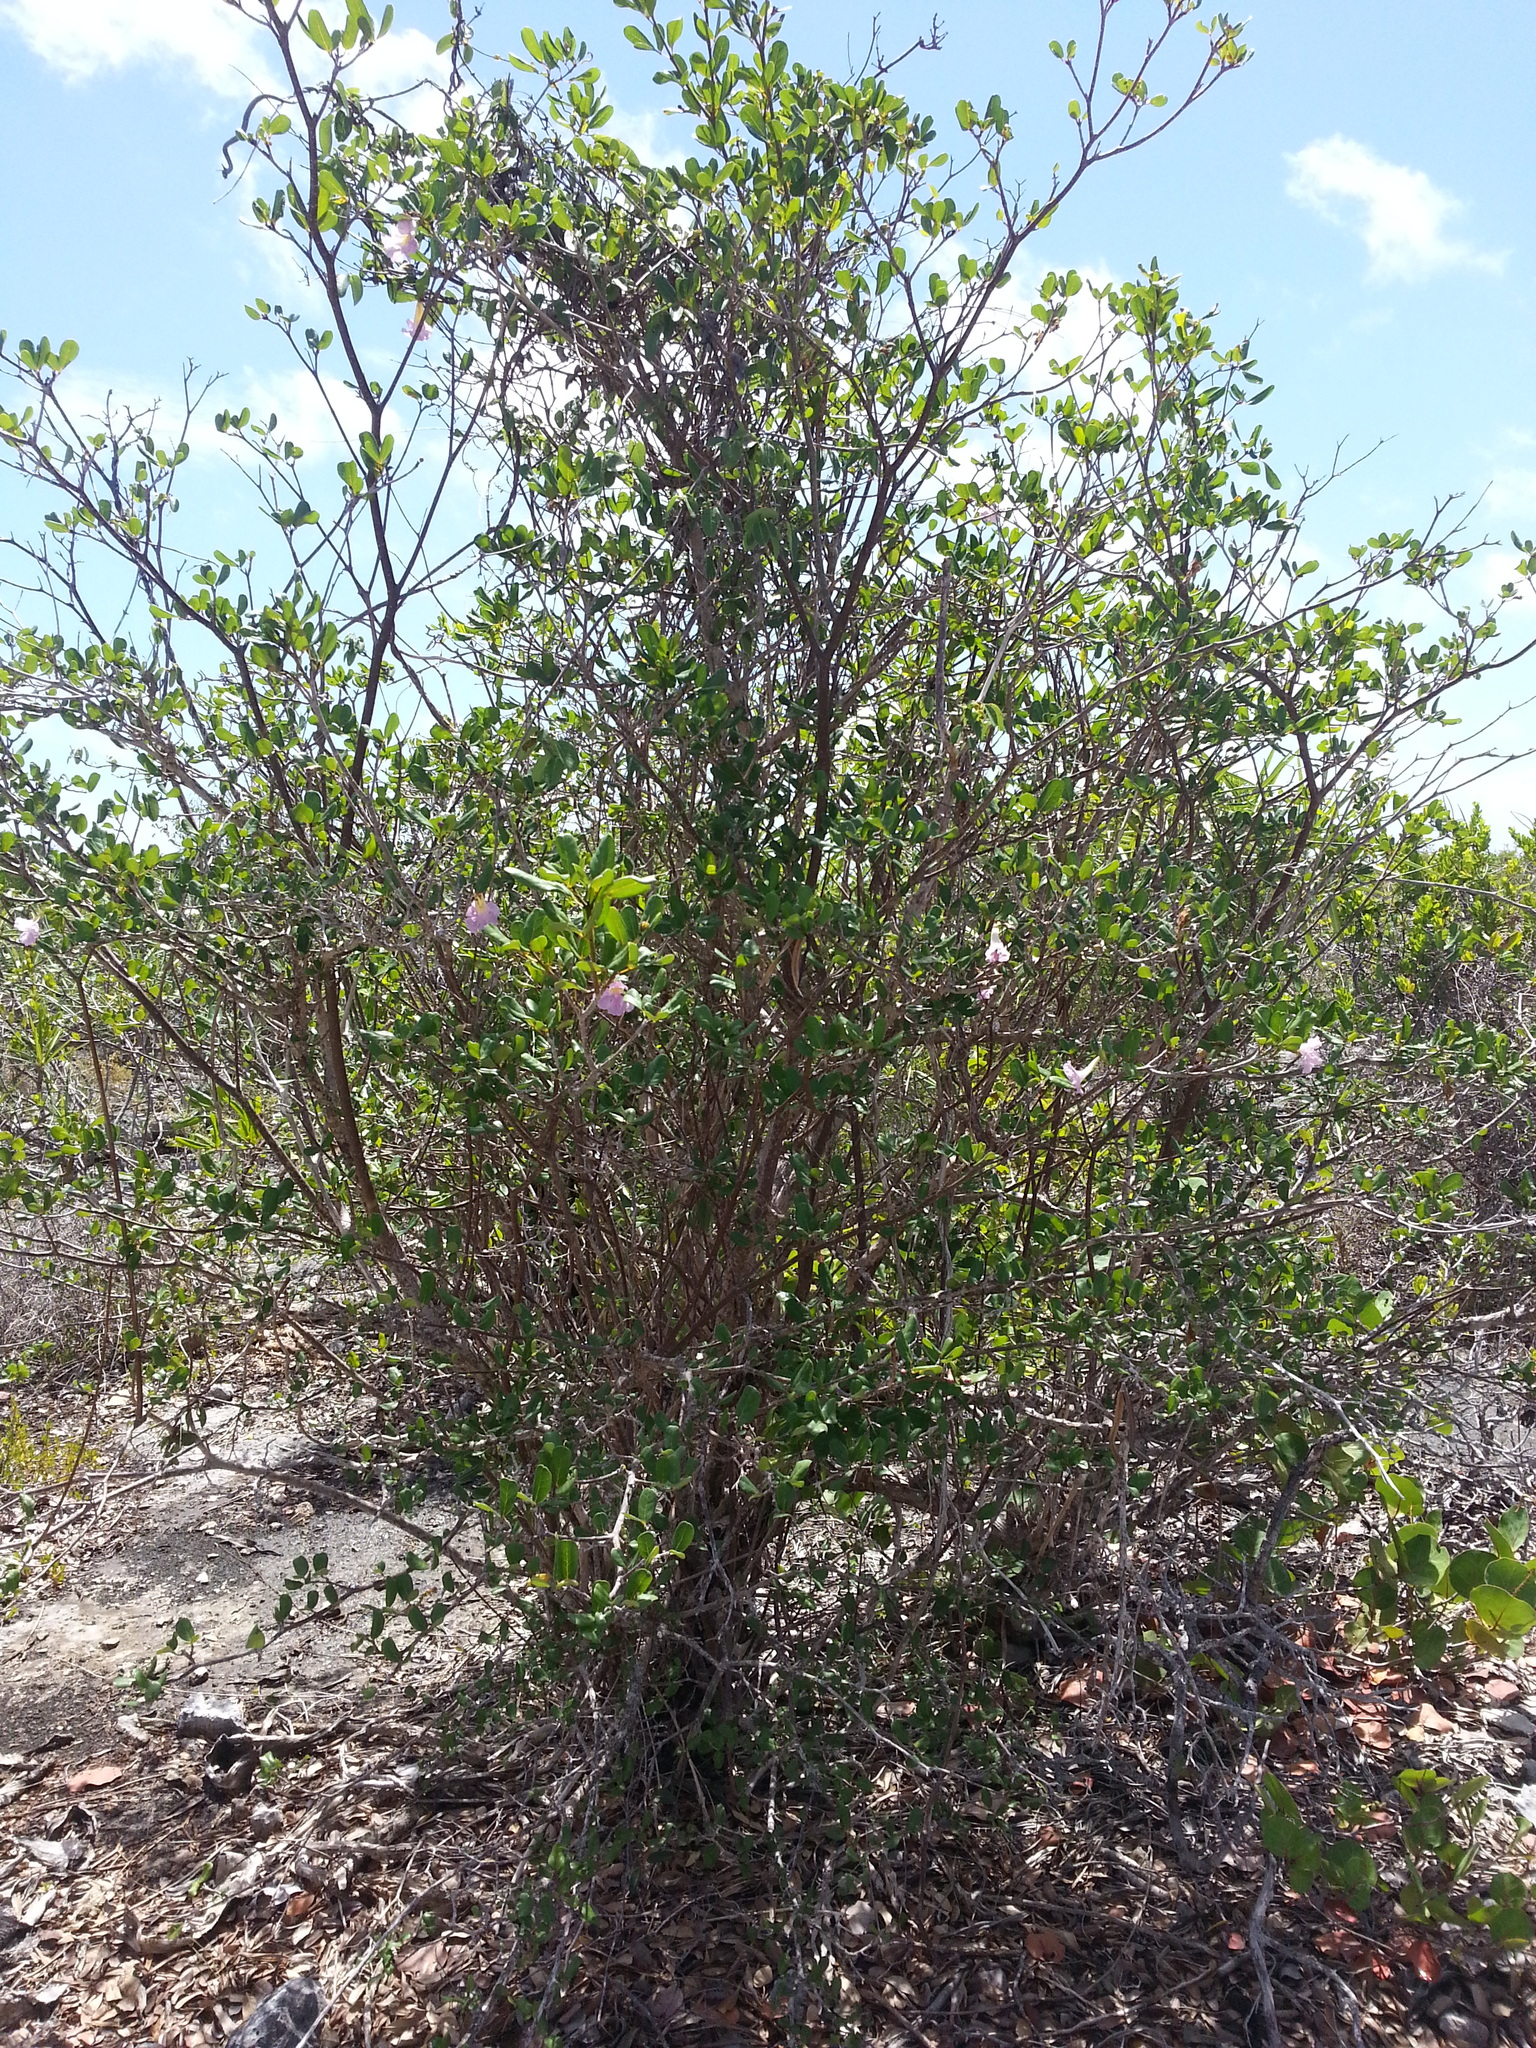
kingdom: Plantae
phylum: Tracheophyta
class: Magnoliopsida
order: Lamiales
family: Bignoniaceae
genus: Tabebuia
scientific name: Tabebuia heterophylla
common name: White cedar
